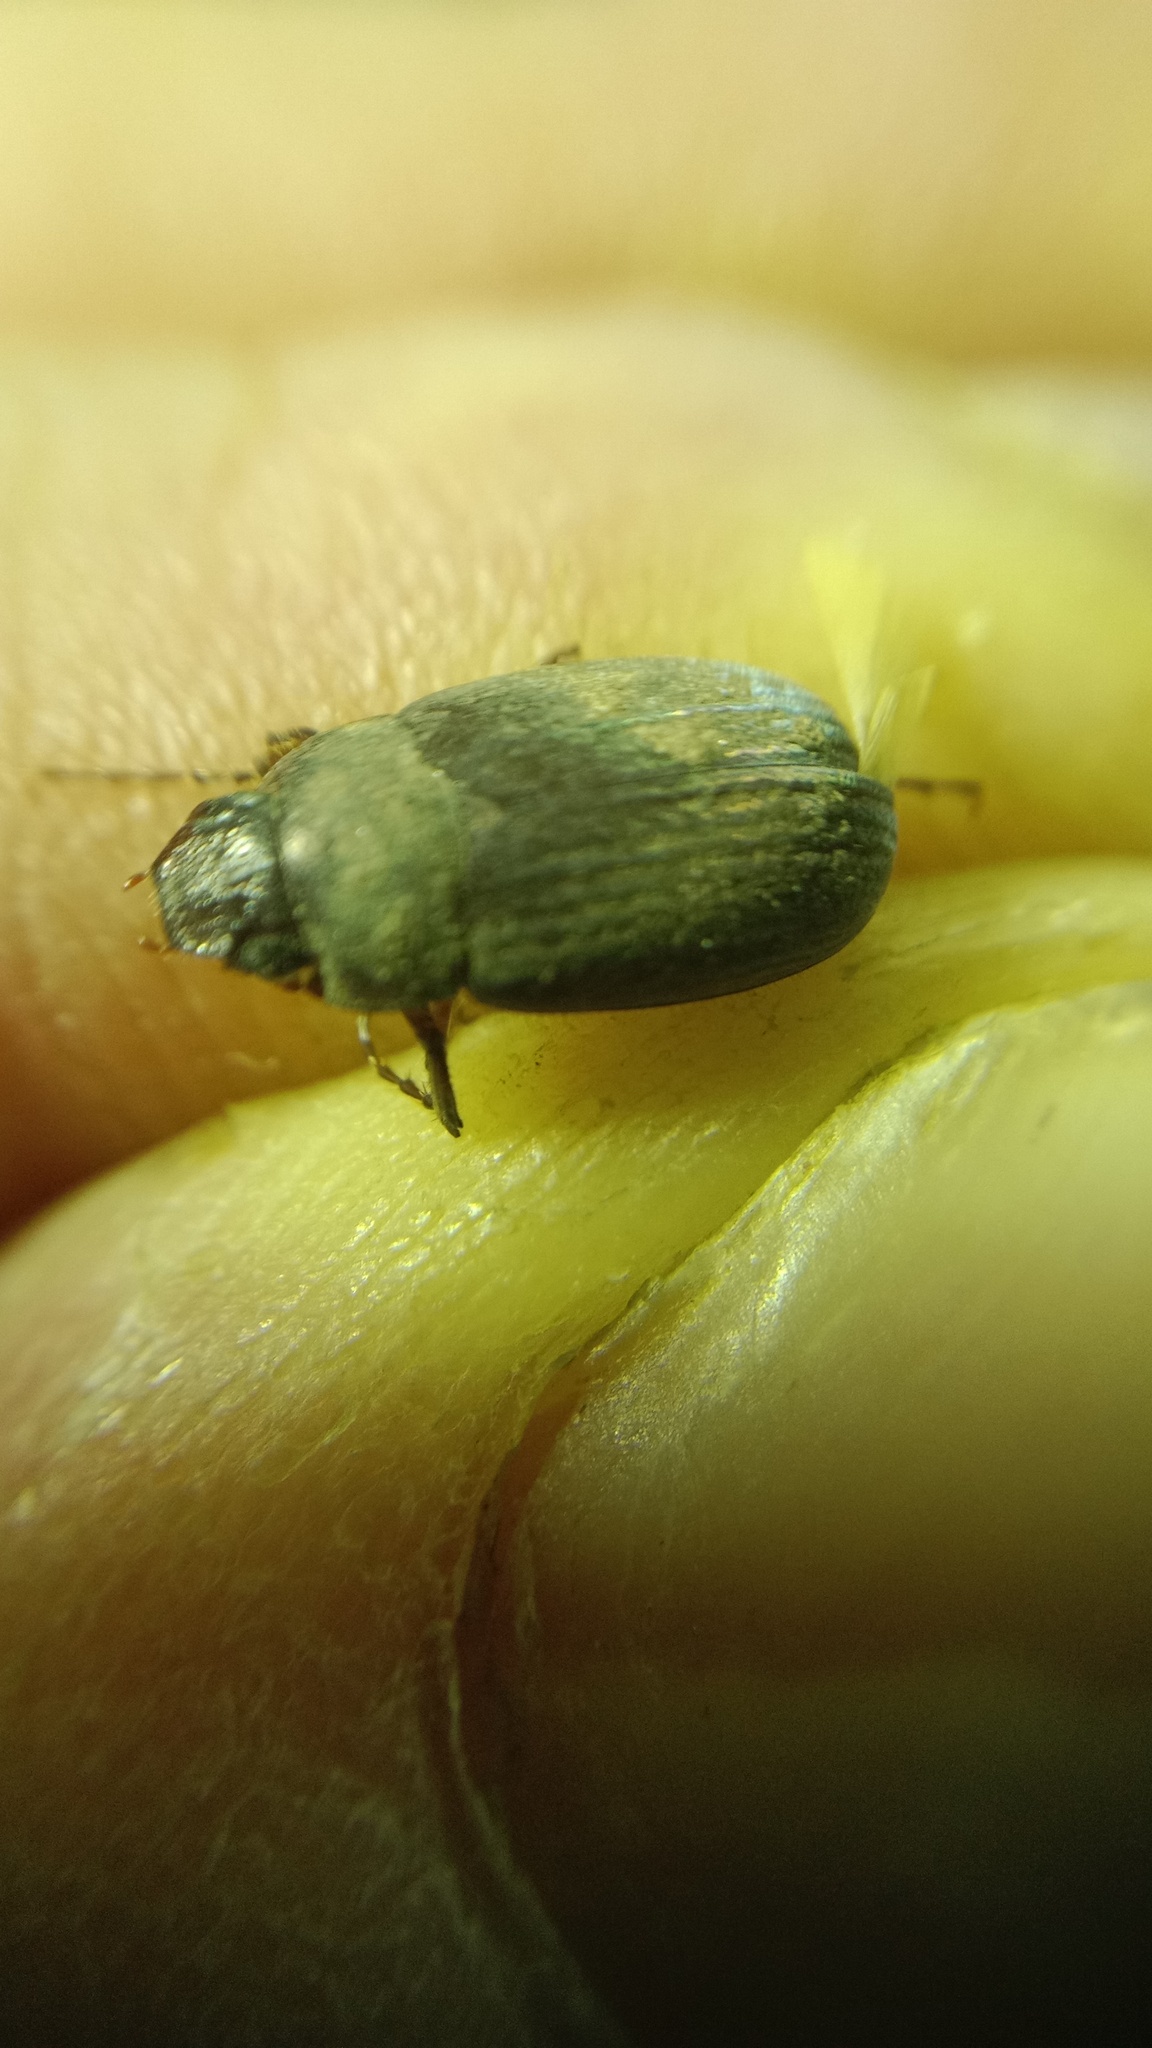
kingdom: Animalia
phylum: Arthropoda
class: Insecta
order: Coleoptera
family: Scarabaeidae
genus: Maladera
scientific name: Maladera holosericea
